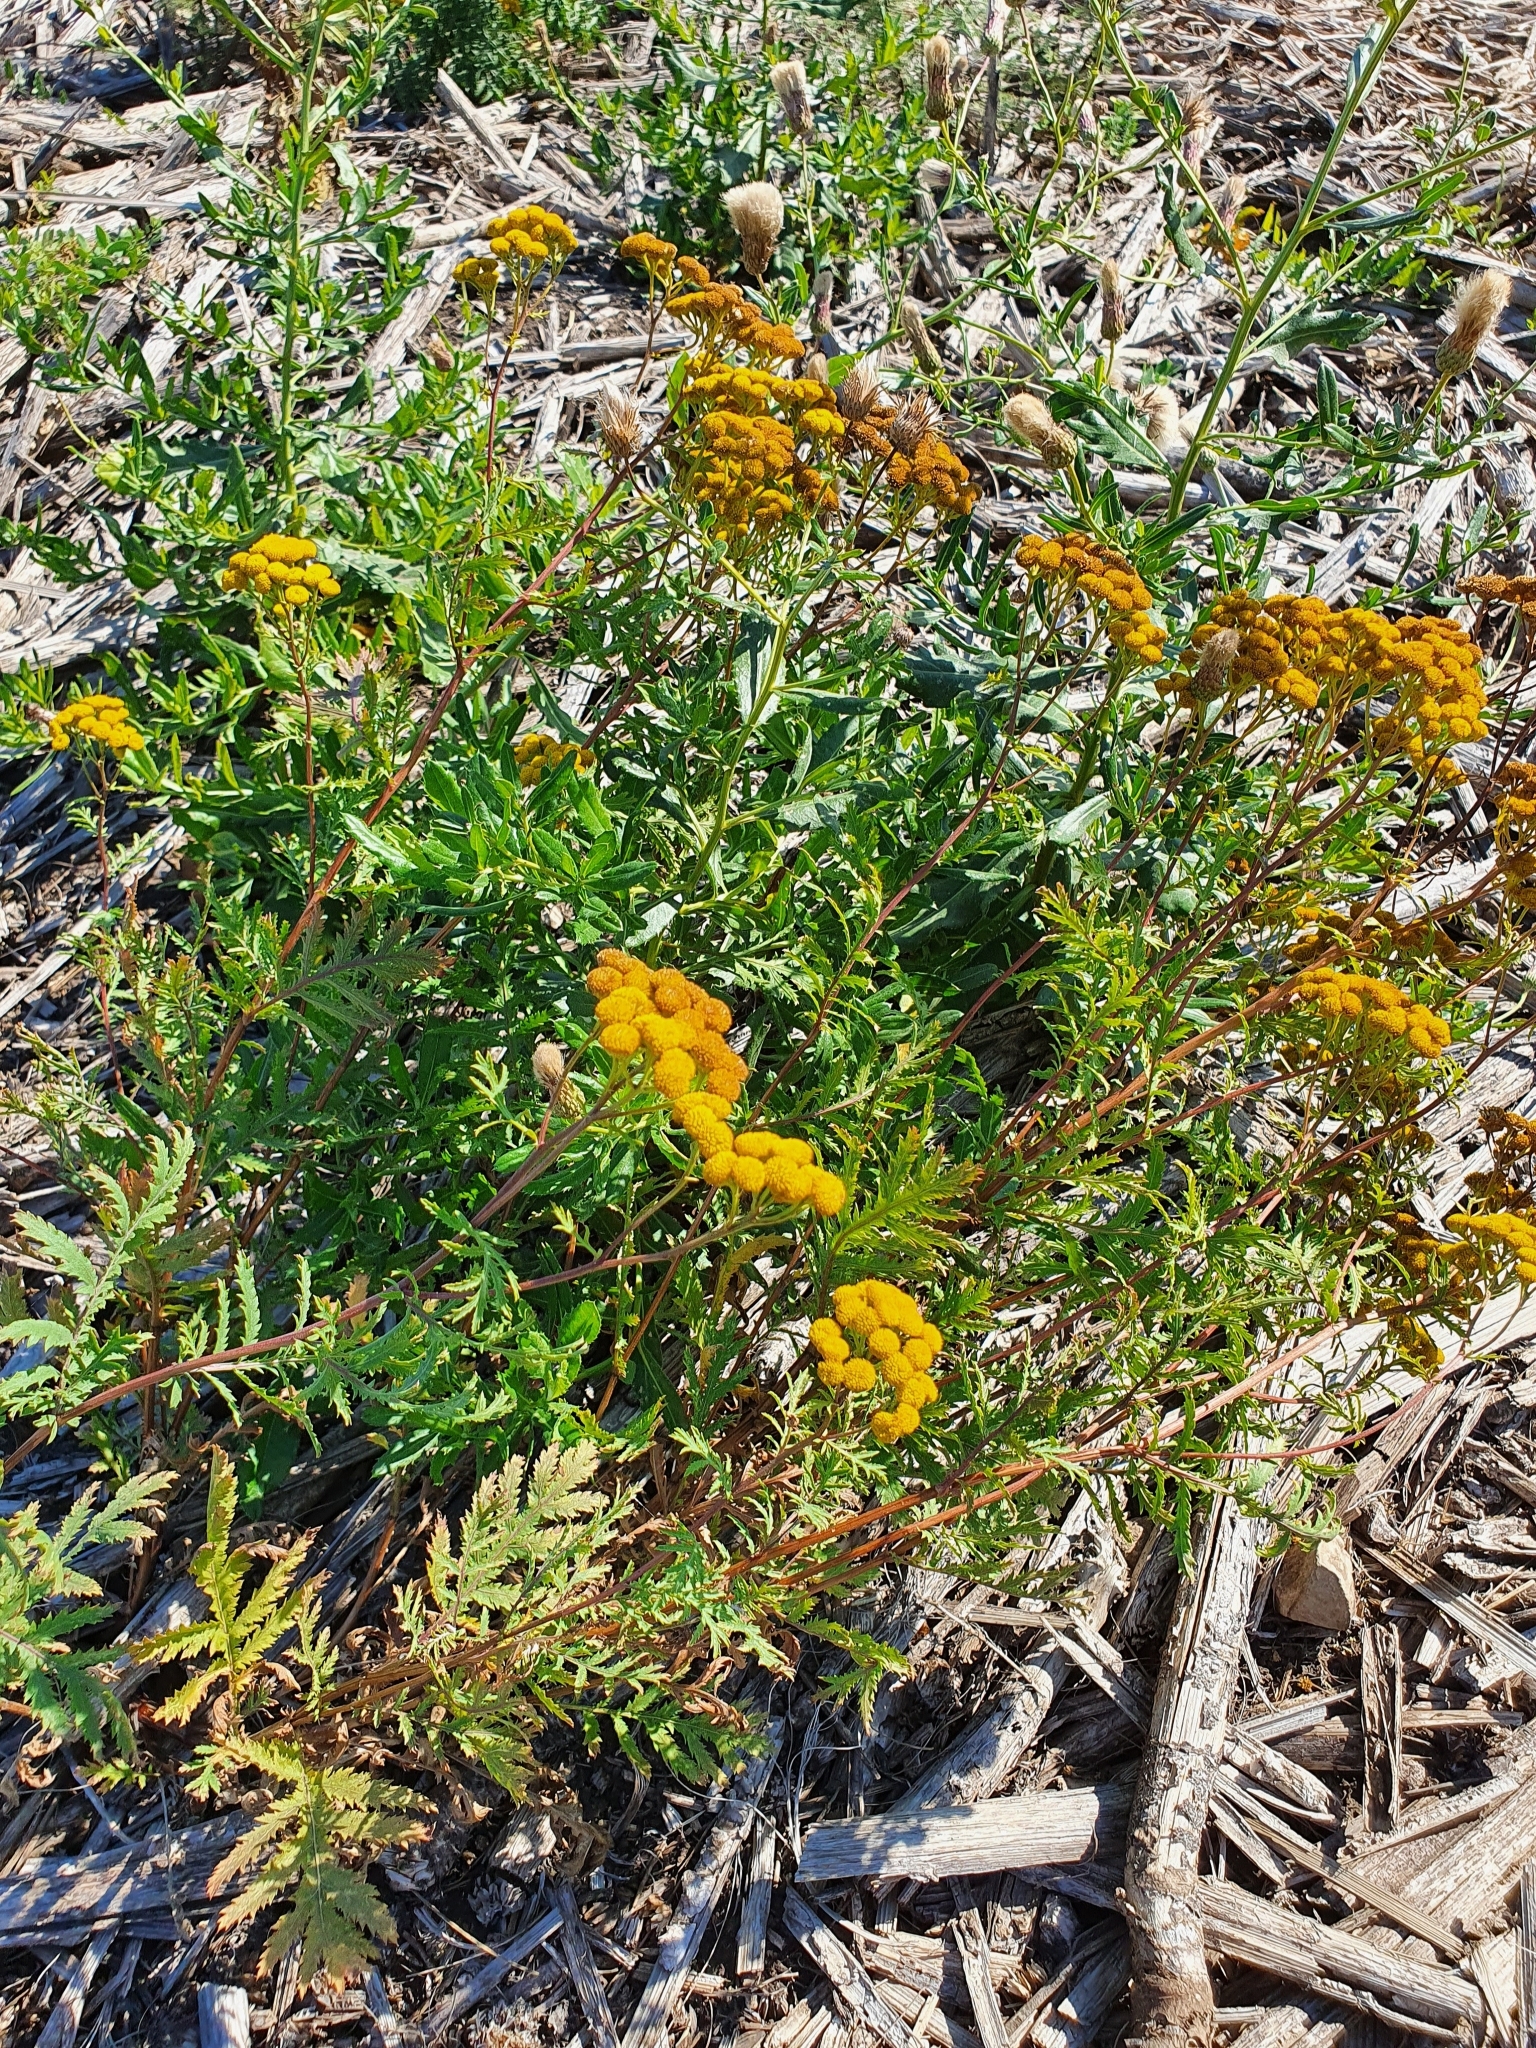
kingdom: Plantae
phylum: Tracheophyta
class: Magnoliopsida
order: Asterales
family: Asteraceae
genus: Tanacetum
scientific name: Tanacetum vulgare
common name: Common tansy
